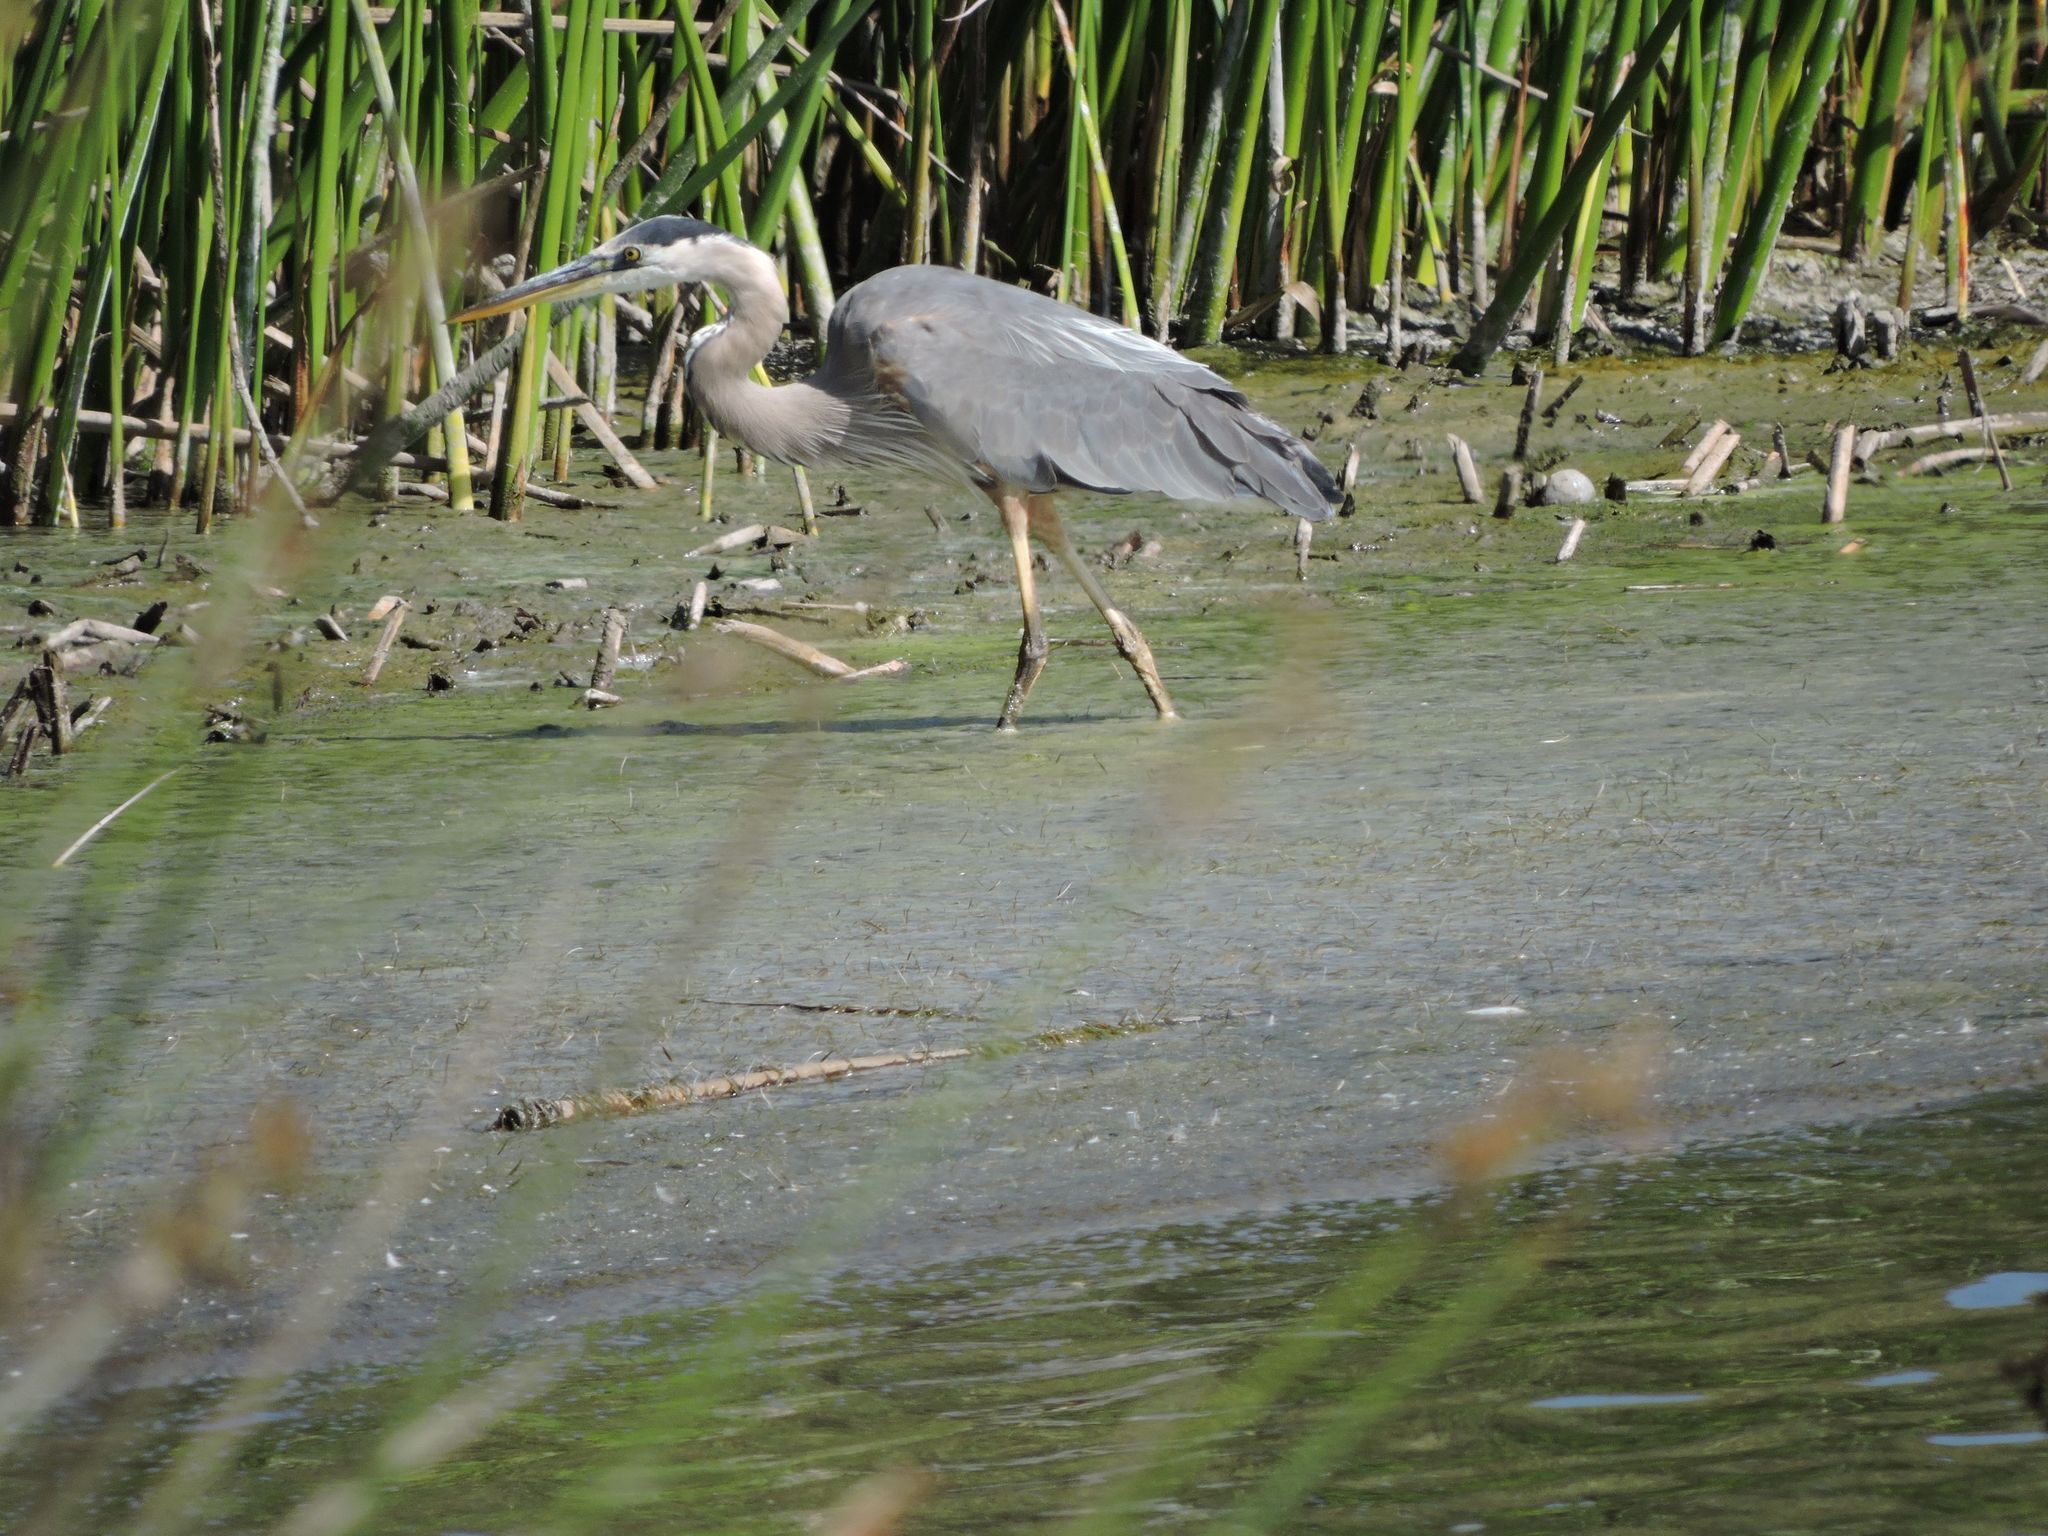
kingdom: Animalia
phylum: Chordata
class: Aves
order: Pelecaniformes
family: Ardeidae
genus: Ardea
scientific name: Ardea herodias
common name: Great blue heron
